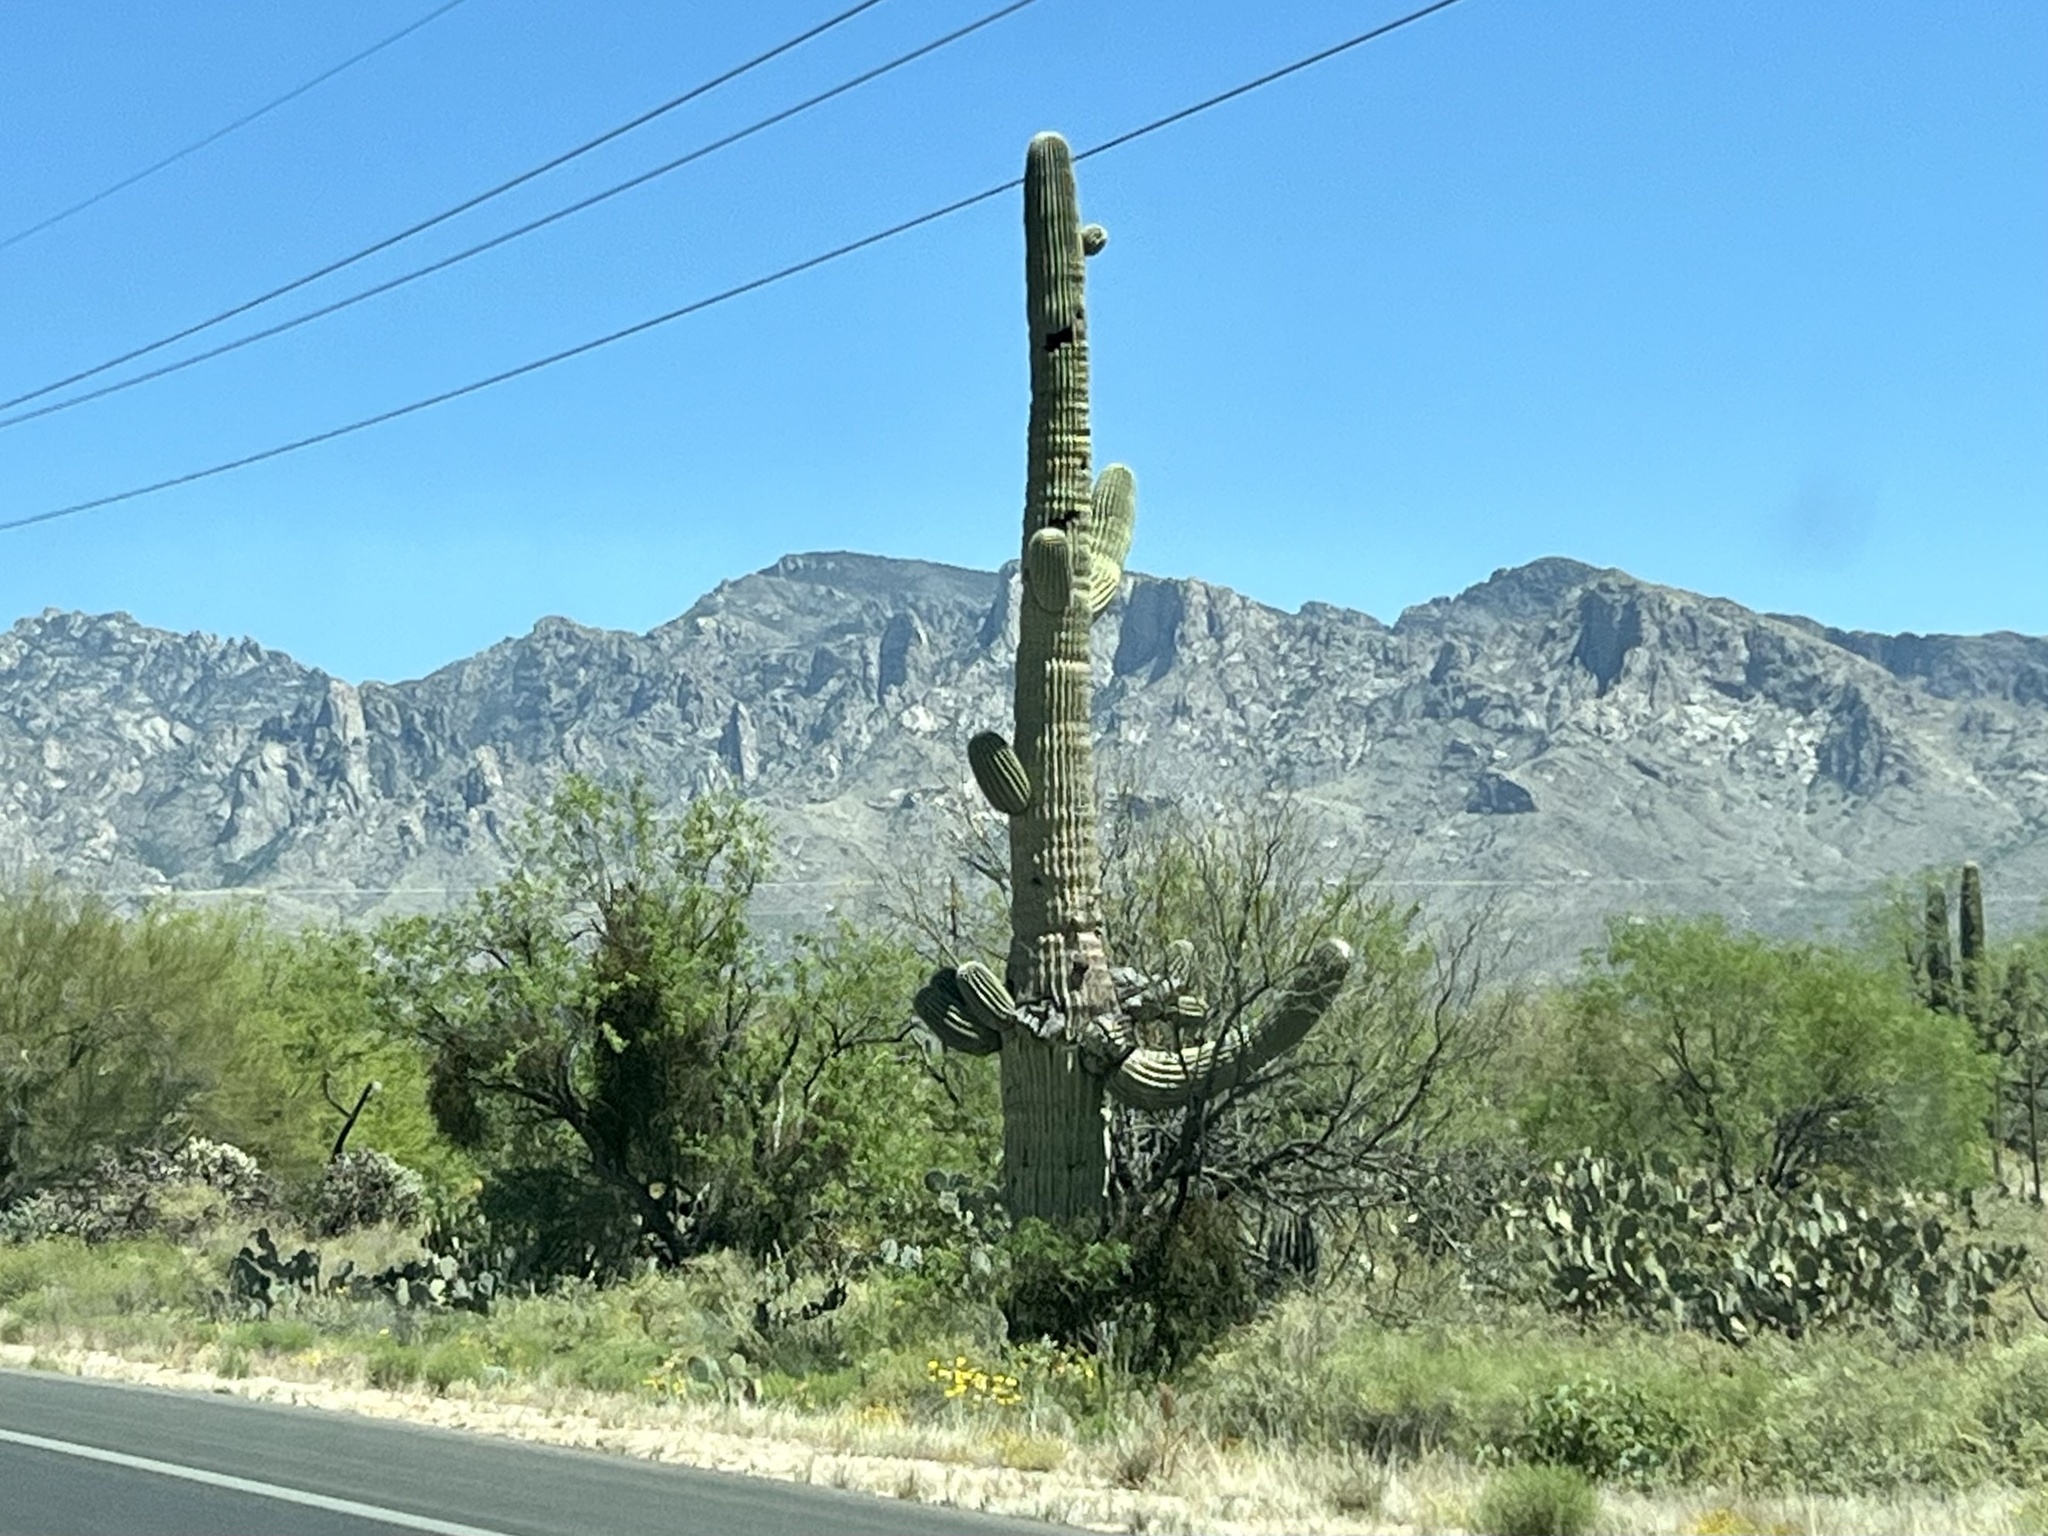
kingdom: Plantae
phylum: Tracheophyta
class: Magnoliopsida
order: Caryophyllales
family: Cactaceae
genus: Carnegiea
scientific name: Carnegiea gigantea
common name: Saguaro
